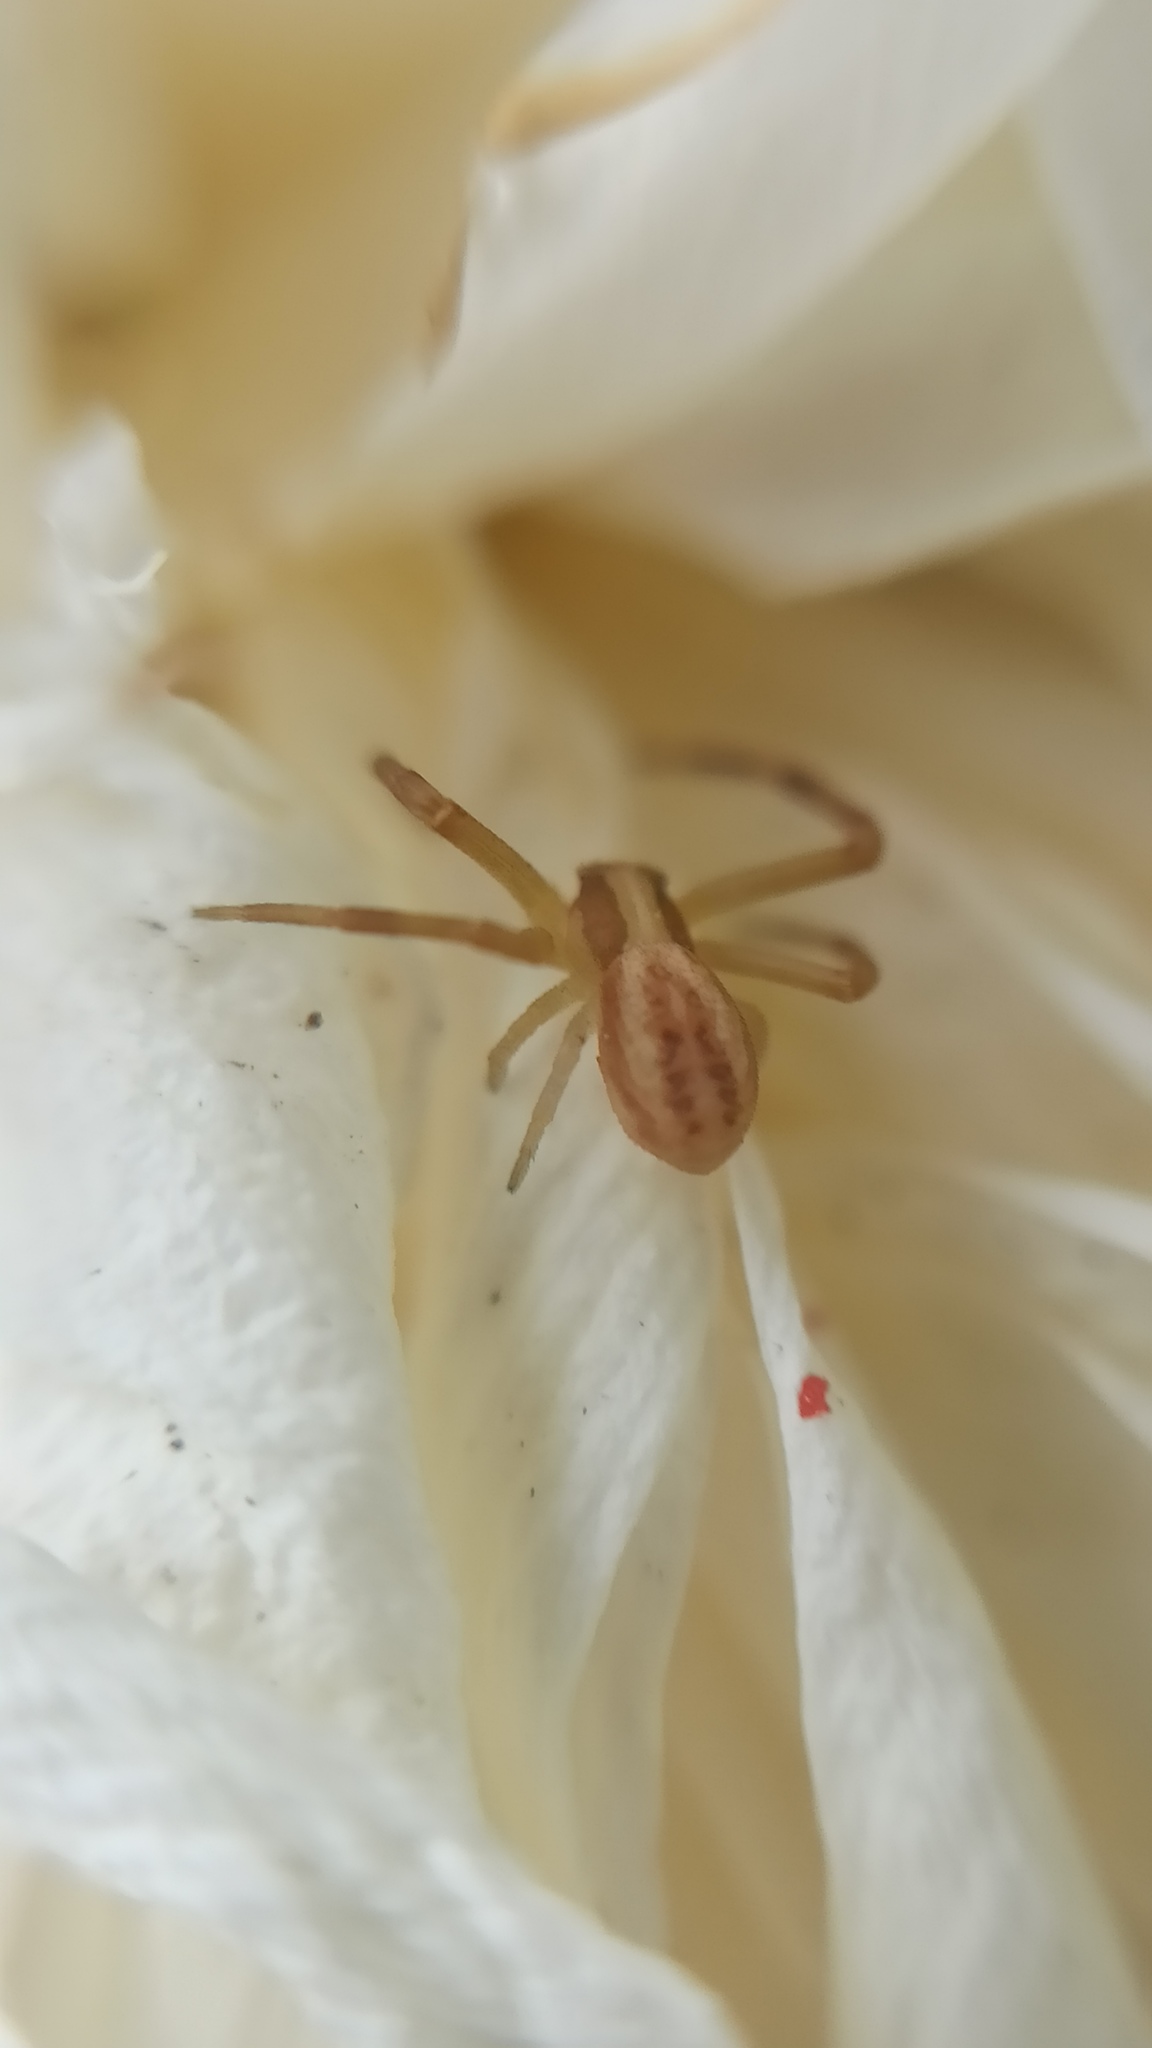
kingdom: Animalia
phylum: Arthropoda
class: Arachnida
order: Araneae
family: Thomisidae
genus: Runcinia
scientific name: Runcinia grammica
